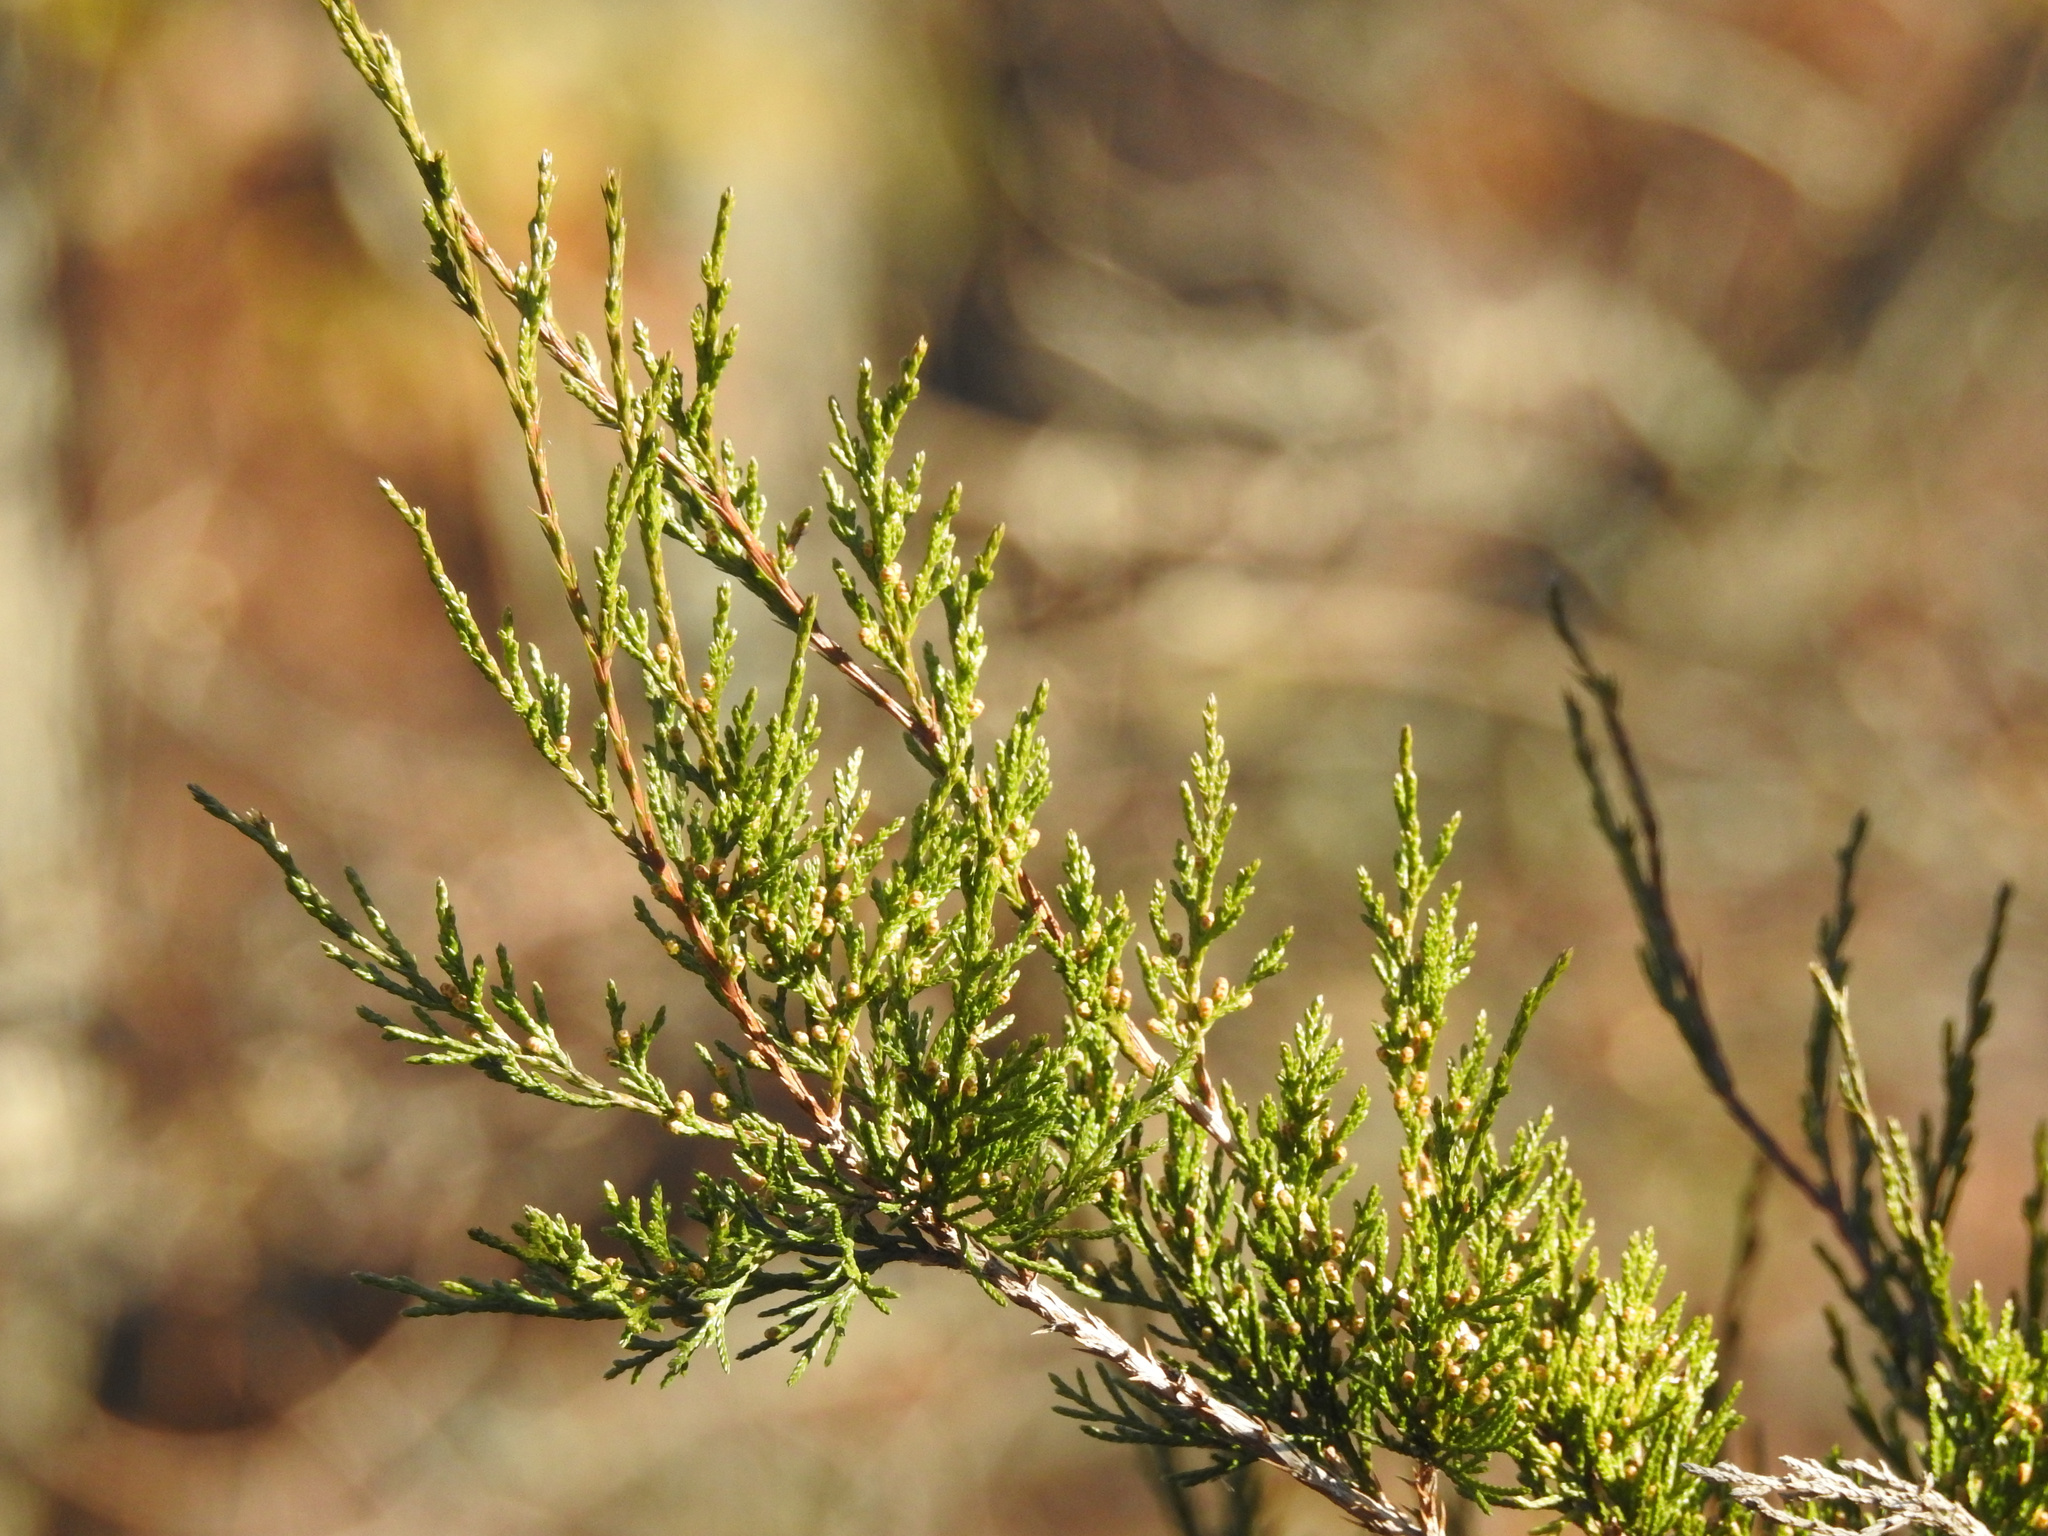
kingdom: Plantae
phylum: Tracheophyta
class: Pinopsida
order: Pinales
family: Cupressaceae
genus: Juniperus
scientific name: Juniperus virginiana
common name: Red juniper
